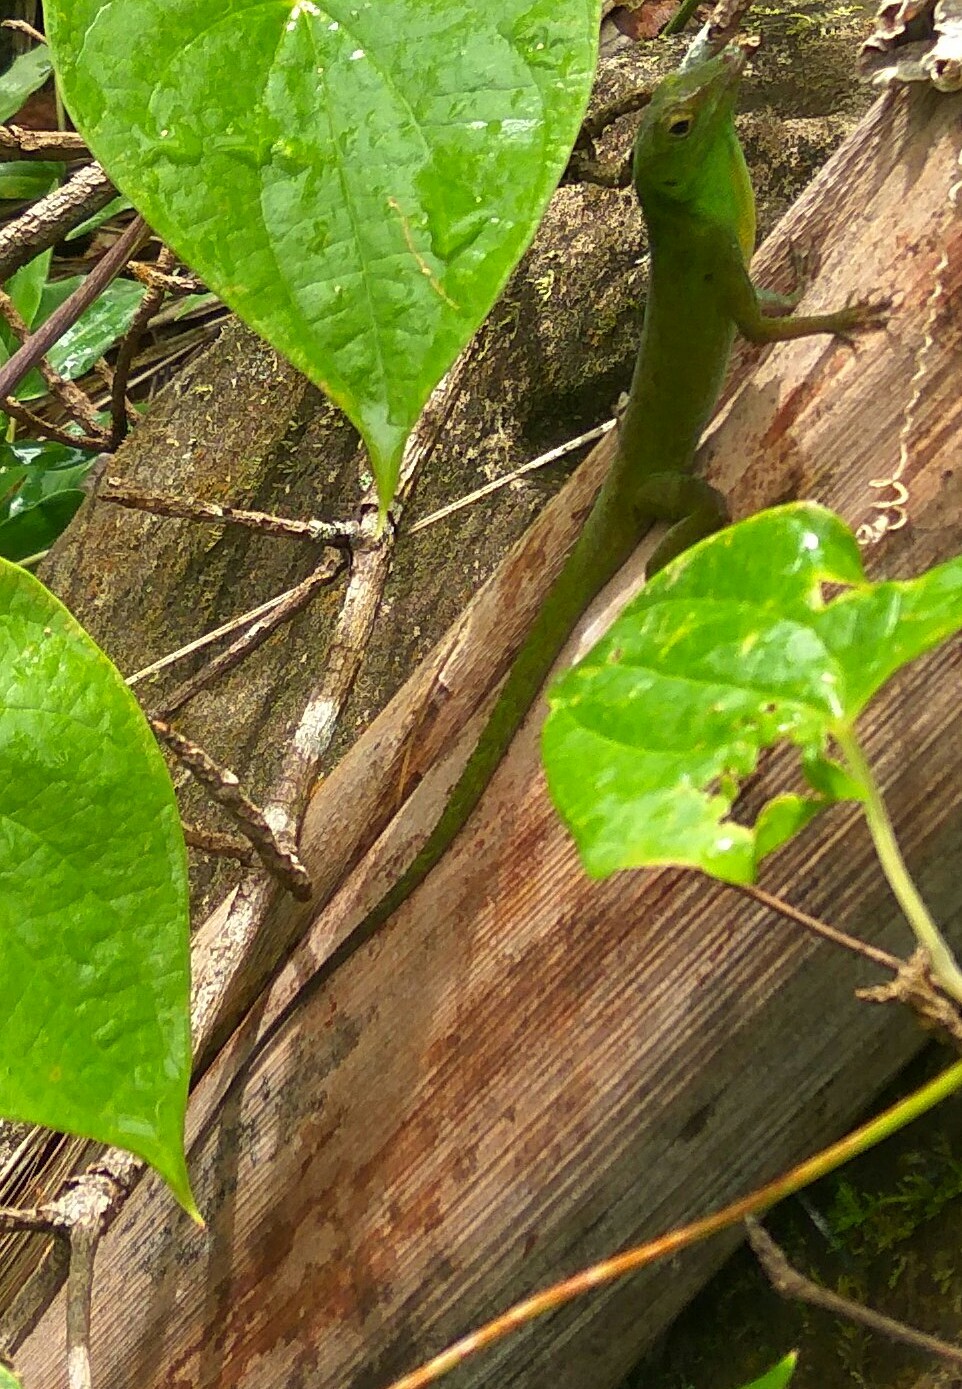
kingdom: Animalia
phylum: Chordata
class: Squamata
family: Dactyloidae
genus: Anolis
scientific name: Anolis evermanni
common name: Emerald anole
